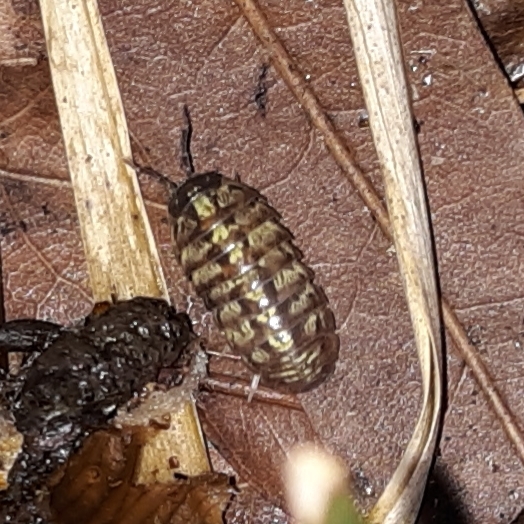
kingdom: Animalia
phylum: Arthropoda
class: Malacostraca
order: Isopoda
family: Armadillidiidae
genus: Armadillidium
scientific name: Armadillidium vulgare
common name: Common pill woodlouse
